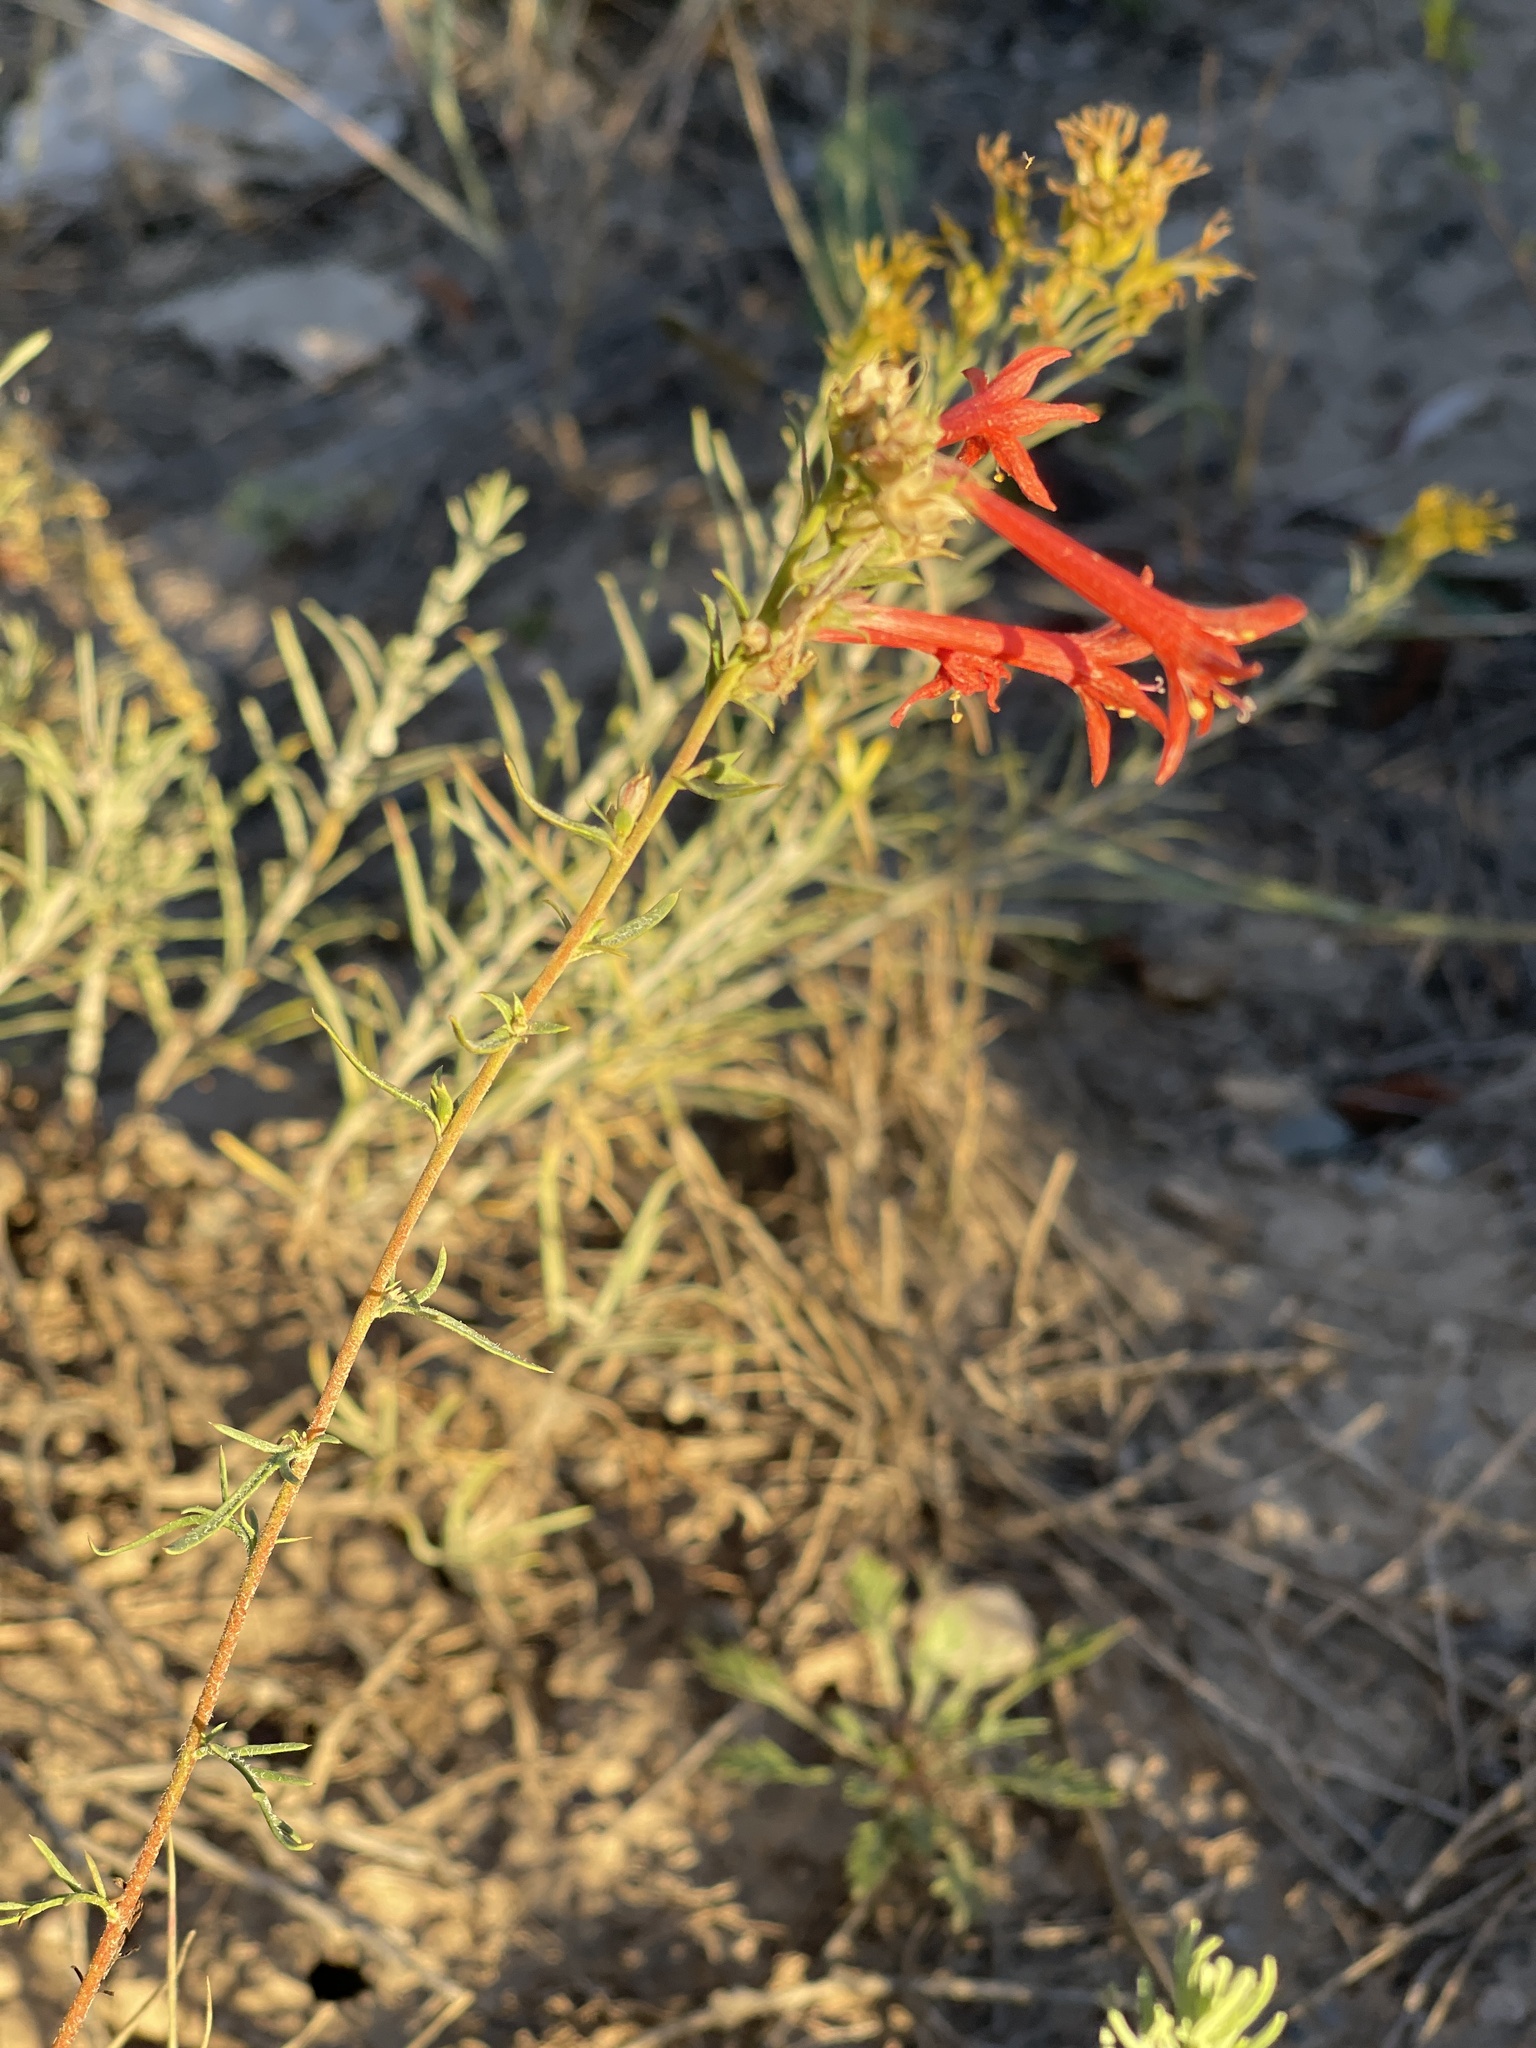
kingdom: Plantae
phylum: Tracheophyta
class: Magnoliopsida
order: Ericales
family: Polemoniaceae
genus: Ipomopsis
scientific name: Ipomopsis aggregata
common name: Scarlet gilia
